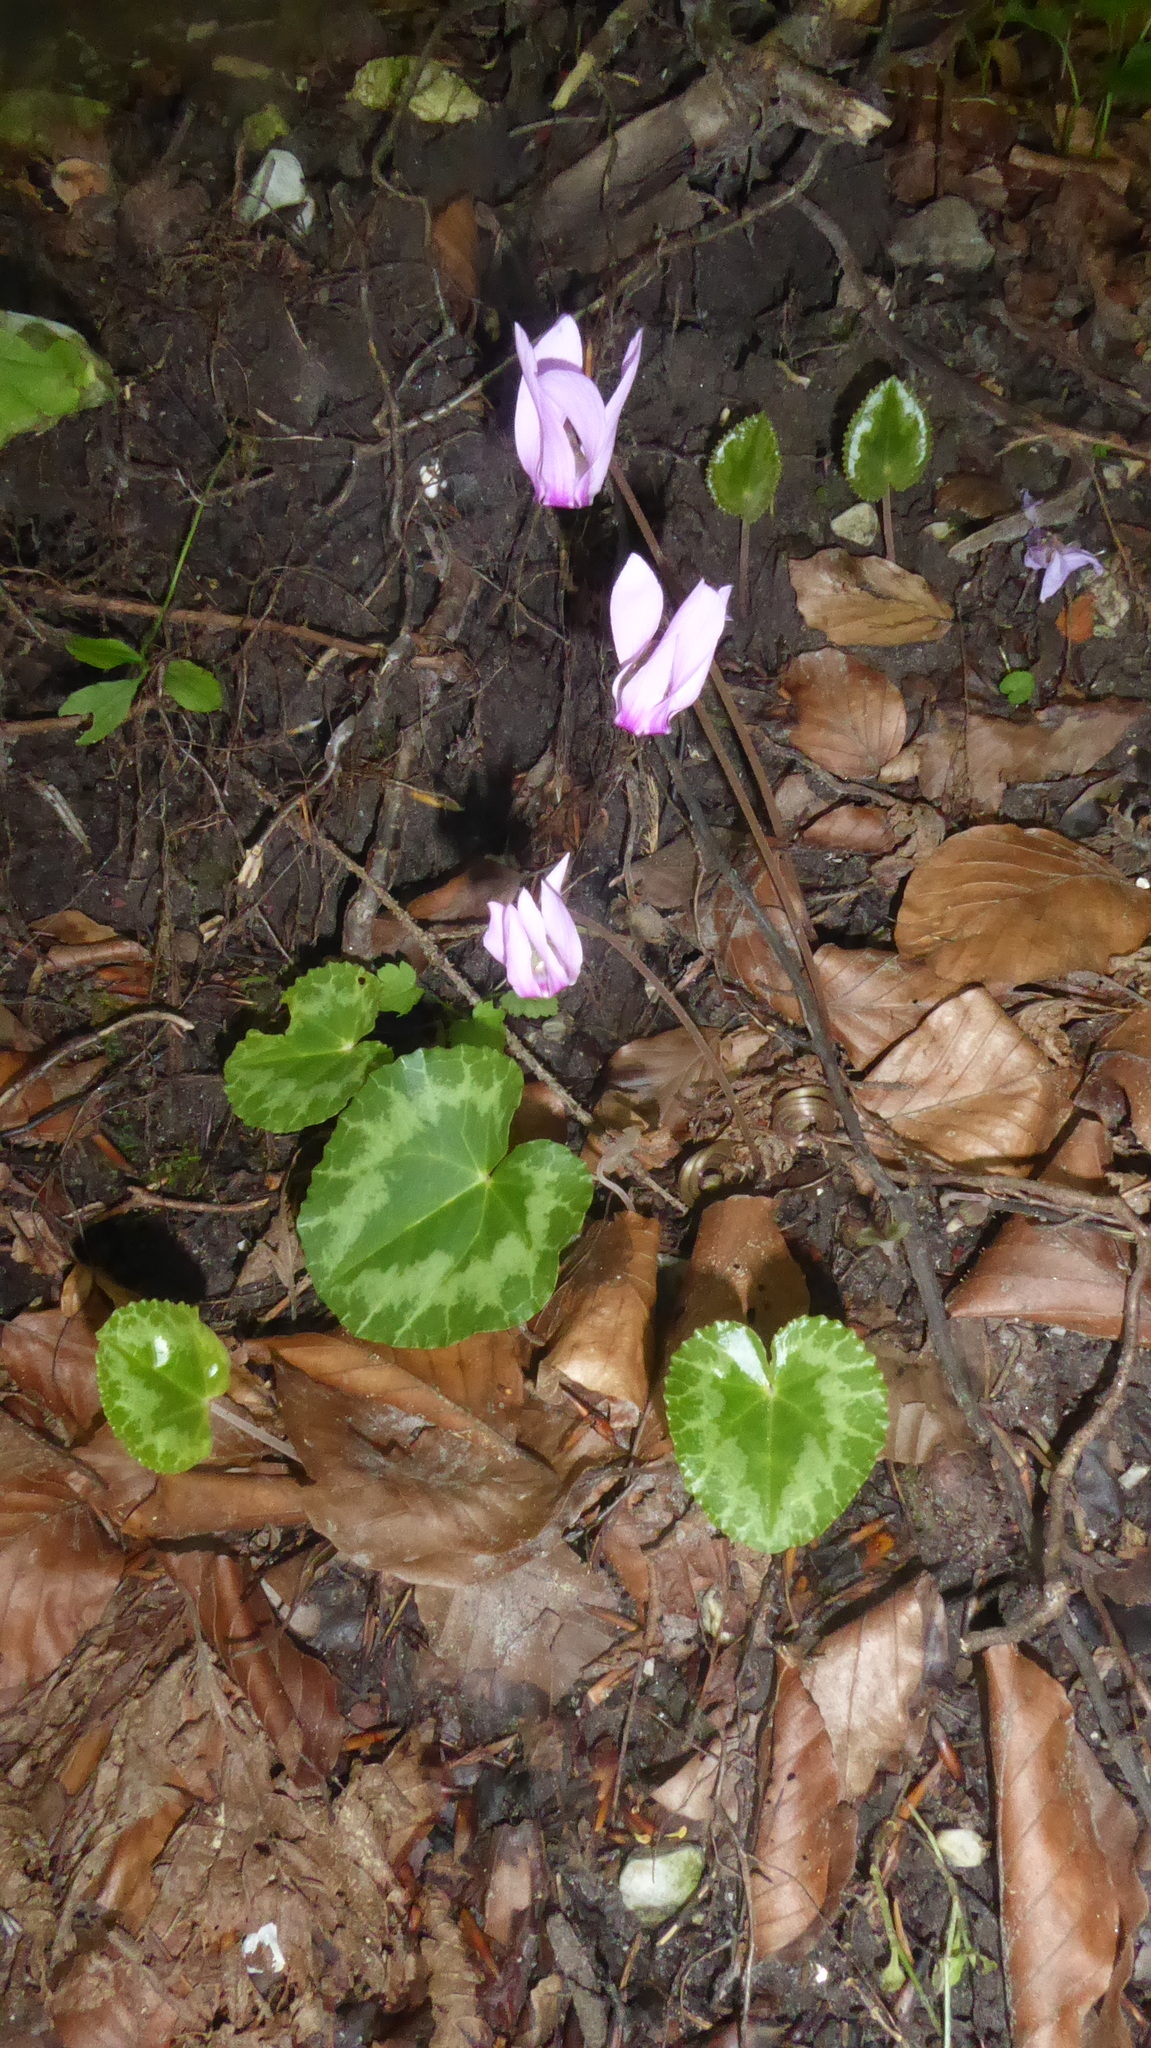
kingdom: Plantae
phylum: Tracheophyta
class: Magnoliopsida
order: Ericales
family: Primulaceae
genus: Cyclamen
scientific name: Cyclamen purpurascens
